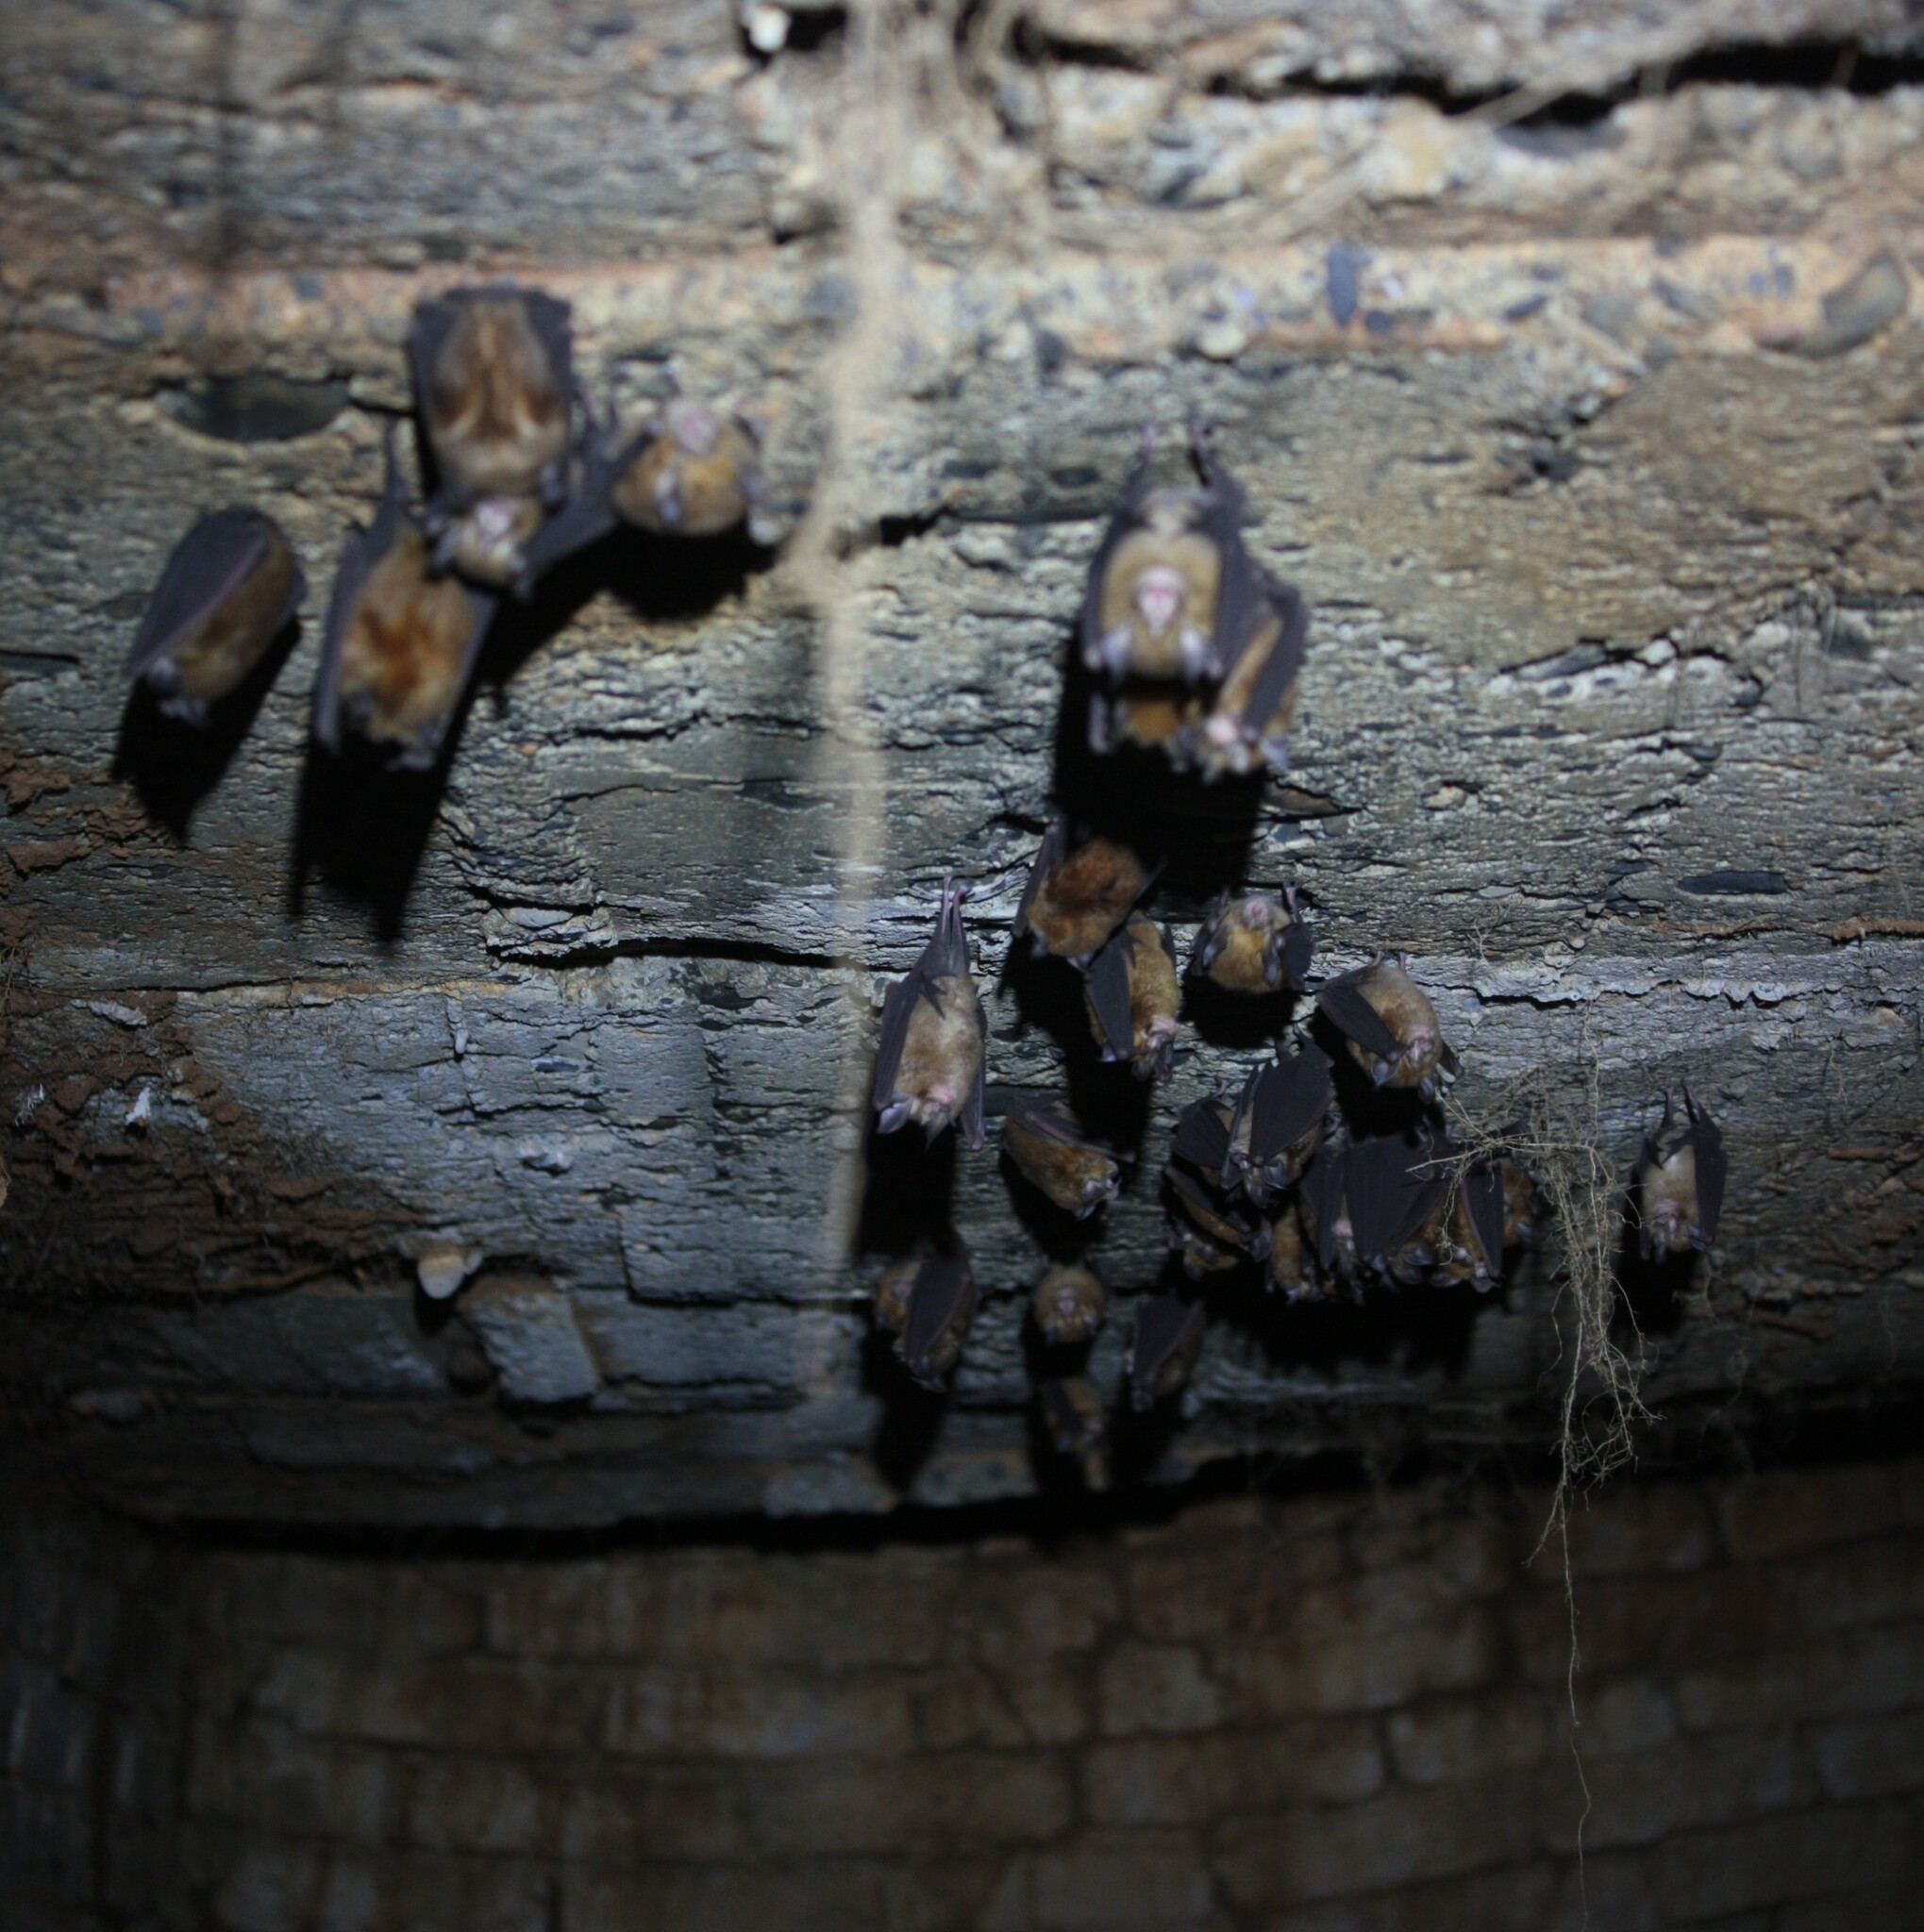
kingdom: Animalia
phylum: Chordata
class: Mammalia
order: Chiroptera
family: Rhinolophidae
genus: Rhinolophus
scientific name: Rhinolophus monoceros
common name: Formosan lesser horseshoe bat
